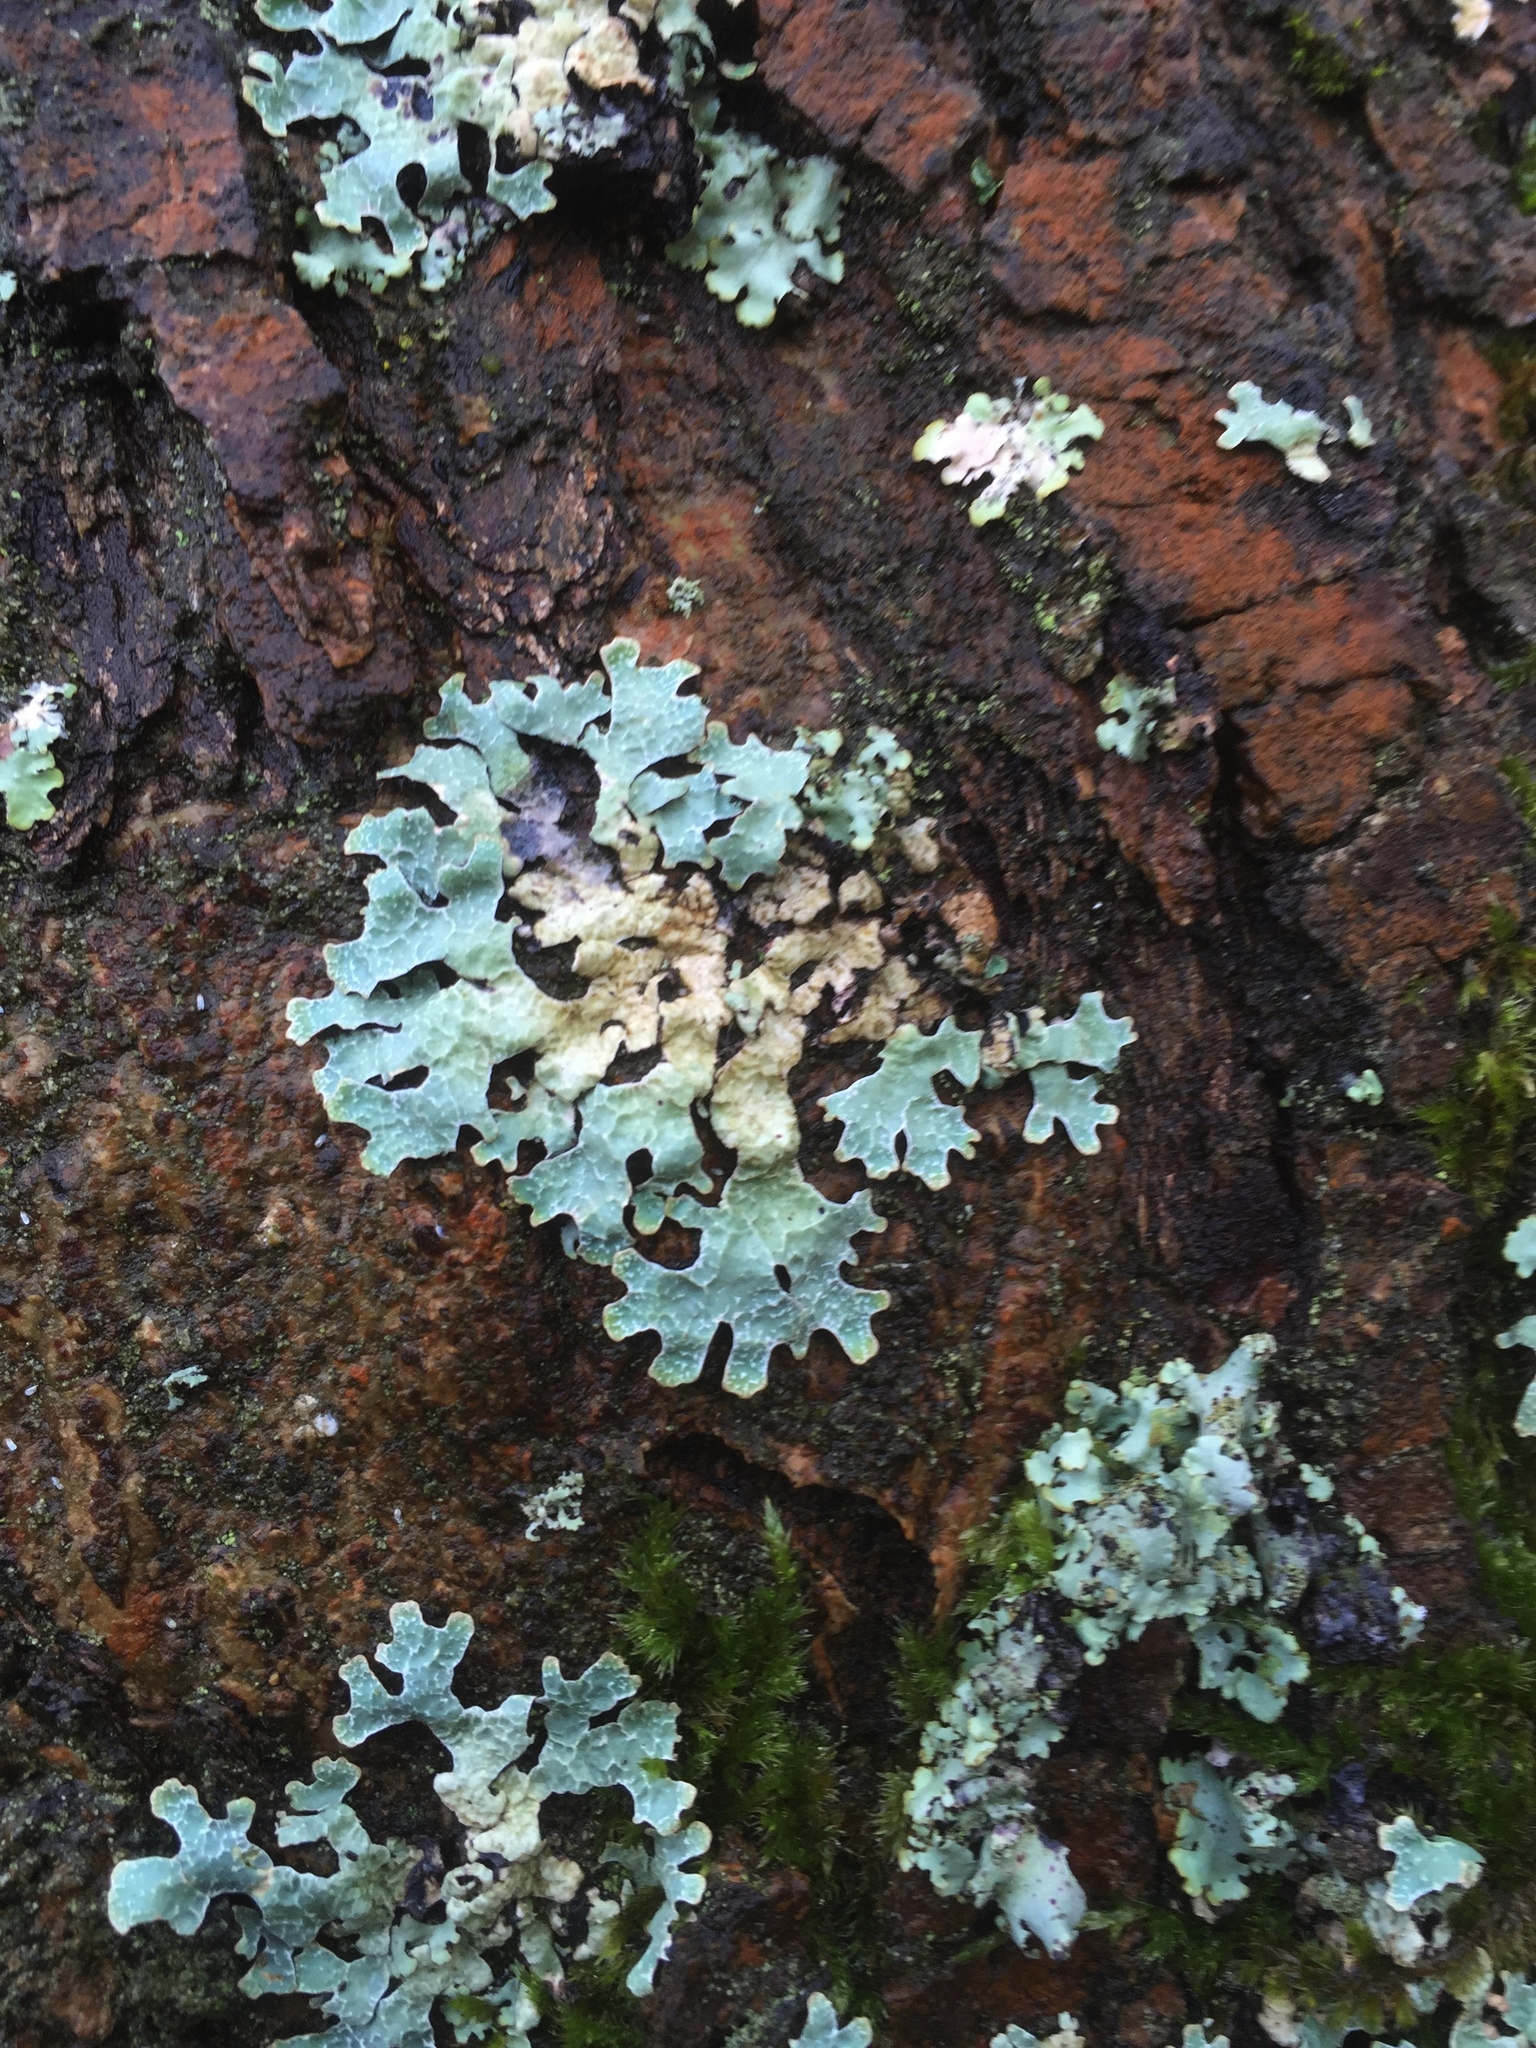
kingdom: Fungi
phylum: Ascomycota
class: Lecanoromycetes
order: Lecanorales
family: Parmeliaceae
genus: Parmelia
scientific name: Parmelia sulcata
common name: Netted shield lichen
